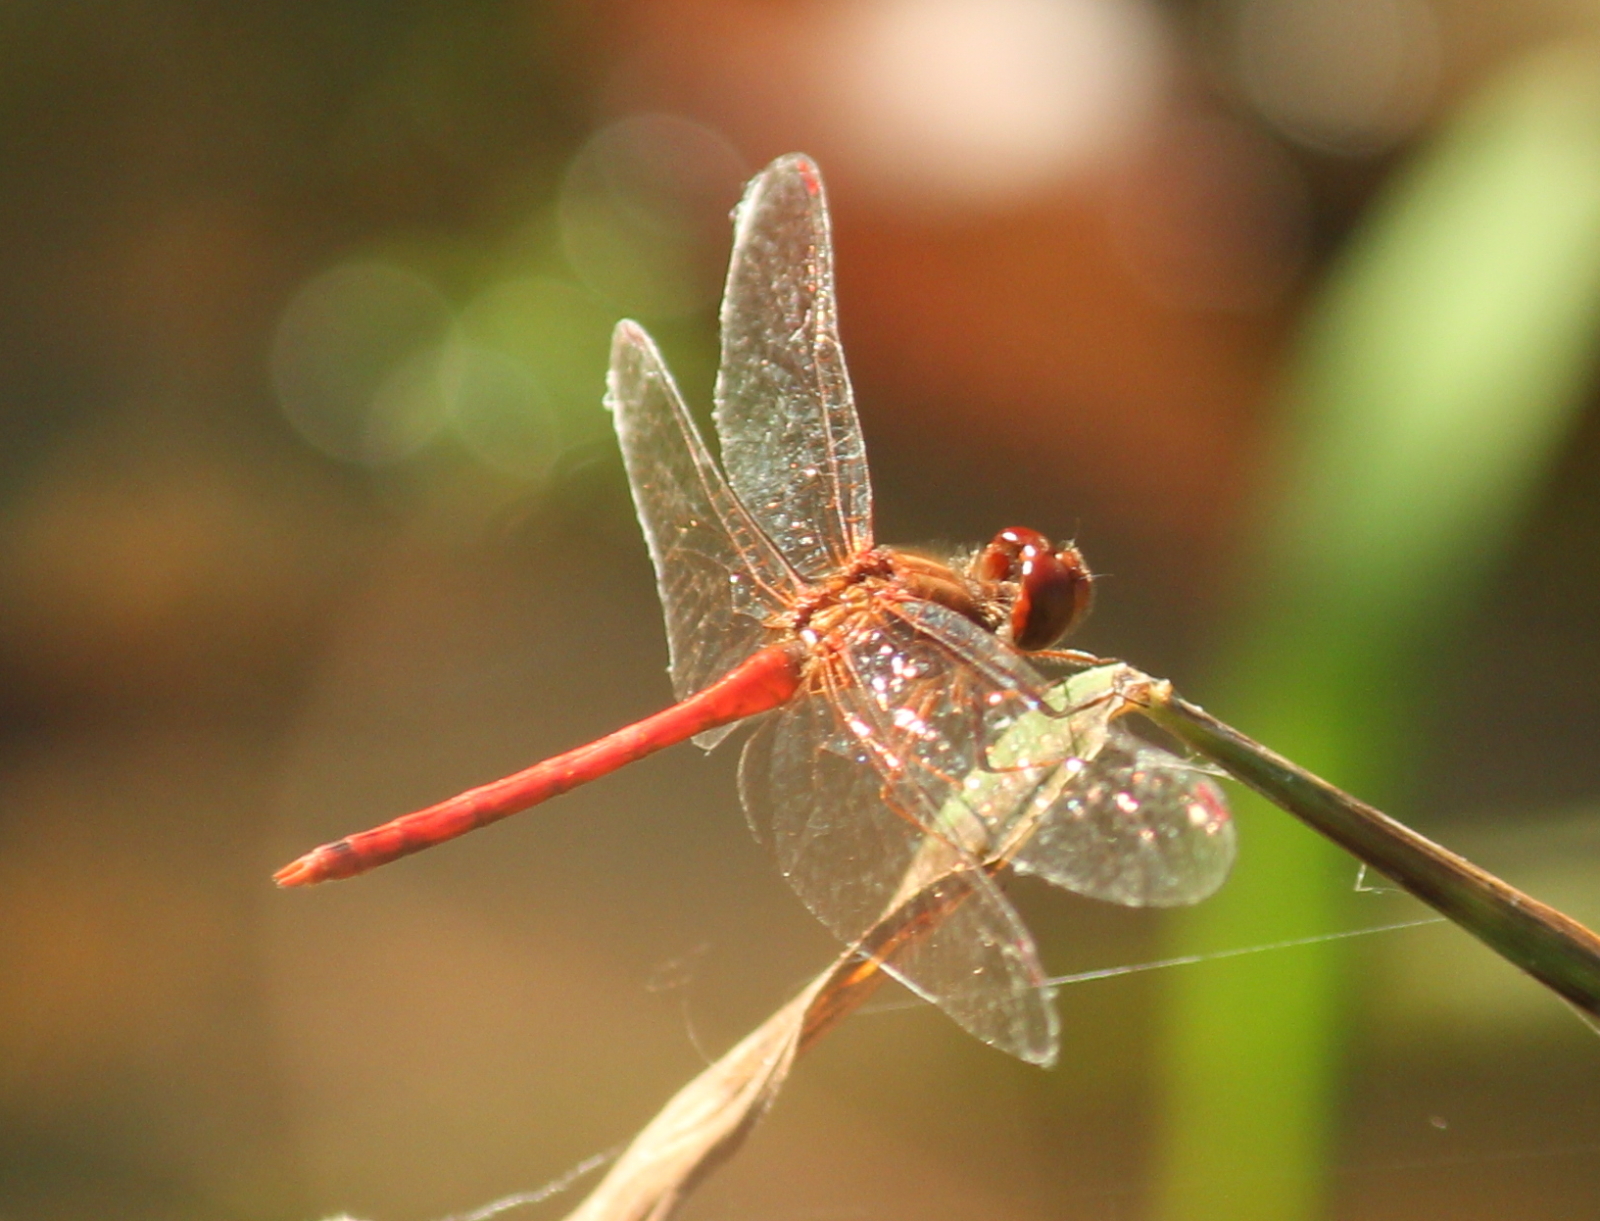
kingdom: Animalia
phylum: Arthropoda
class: Insecta
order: Odonata
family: Libellulidae
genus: Sympetrum
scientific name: Sympetrum vicinum
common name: Autumn meadowhawk
